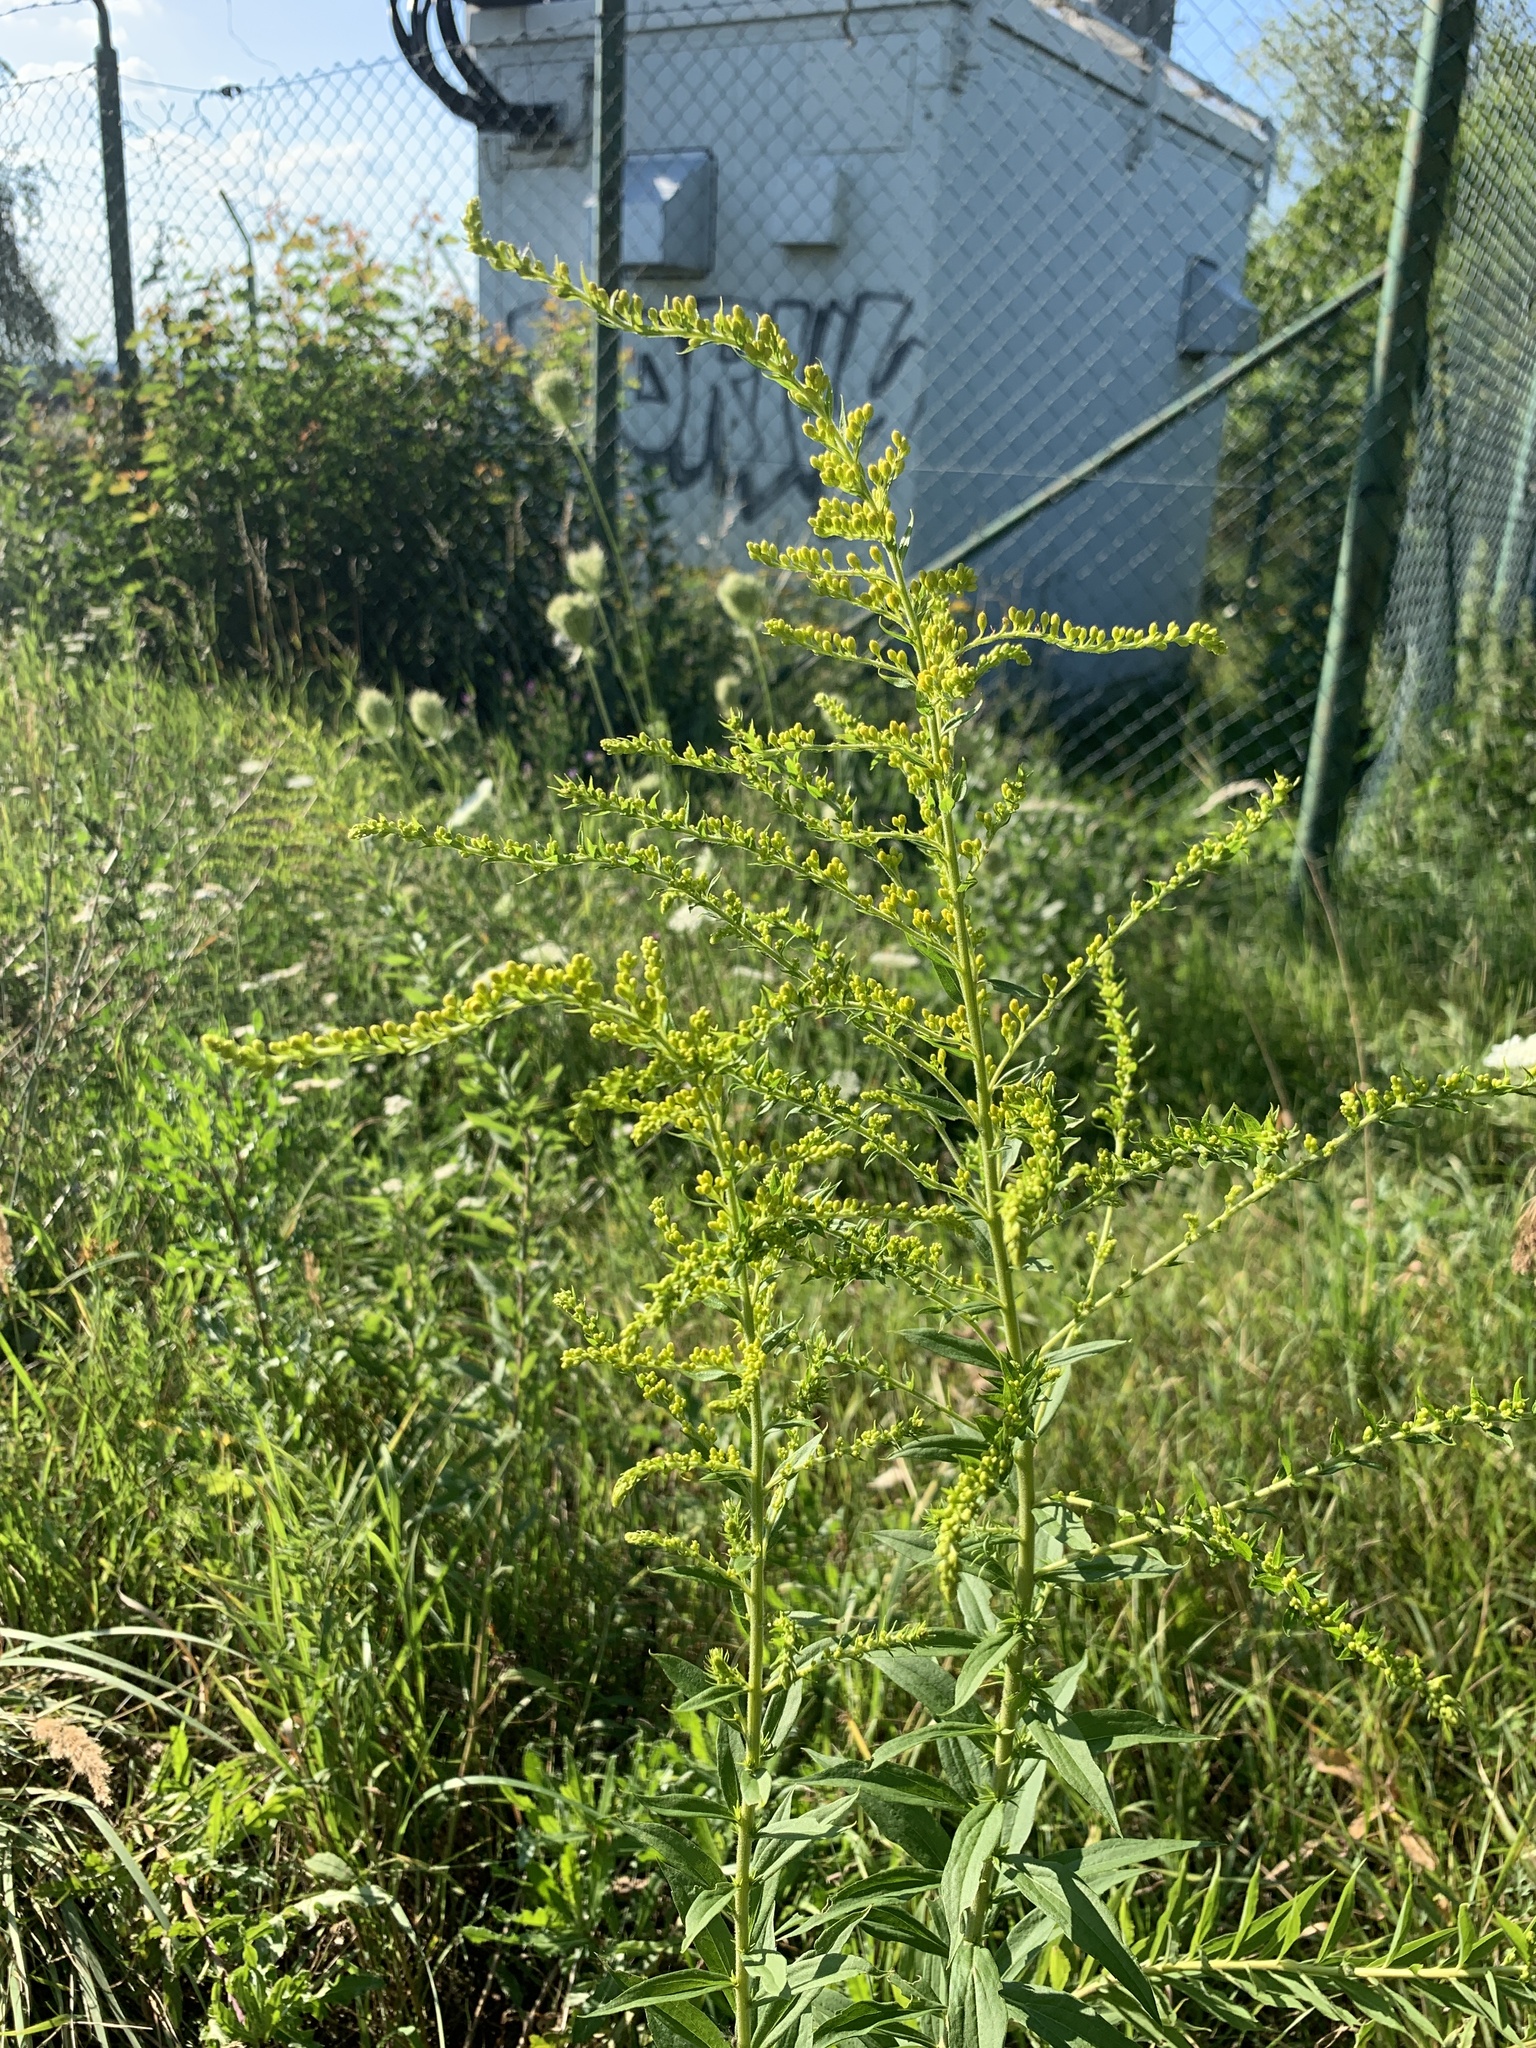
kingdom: Plantae
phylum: Tracheophyta
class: Magnoliopsida
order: Asterales
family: Asteraceae
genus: Solidago
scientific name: Solidago canadensis
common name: Canada goldenrod
